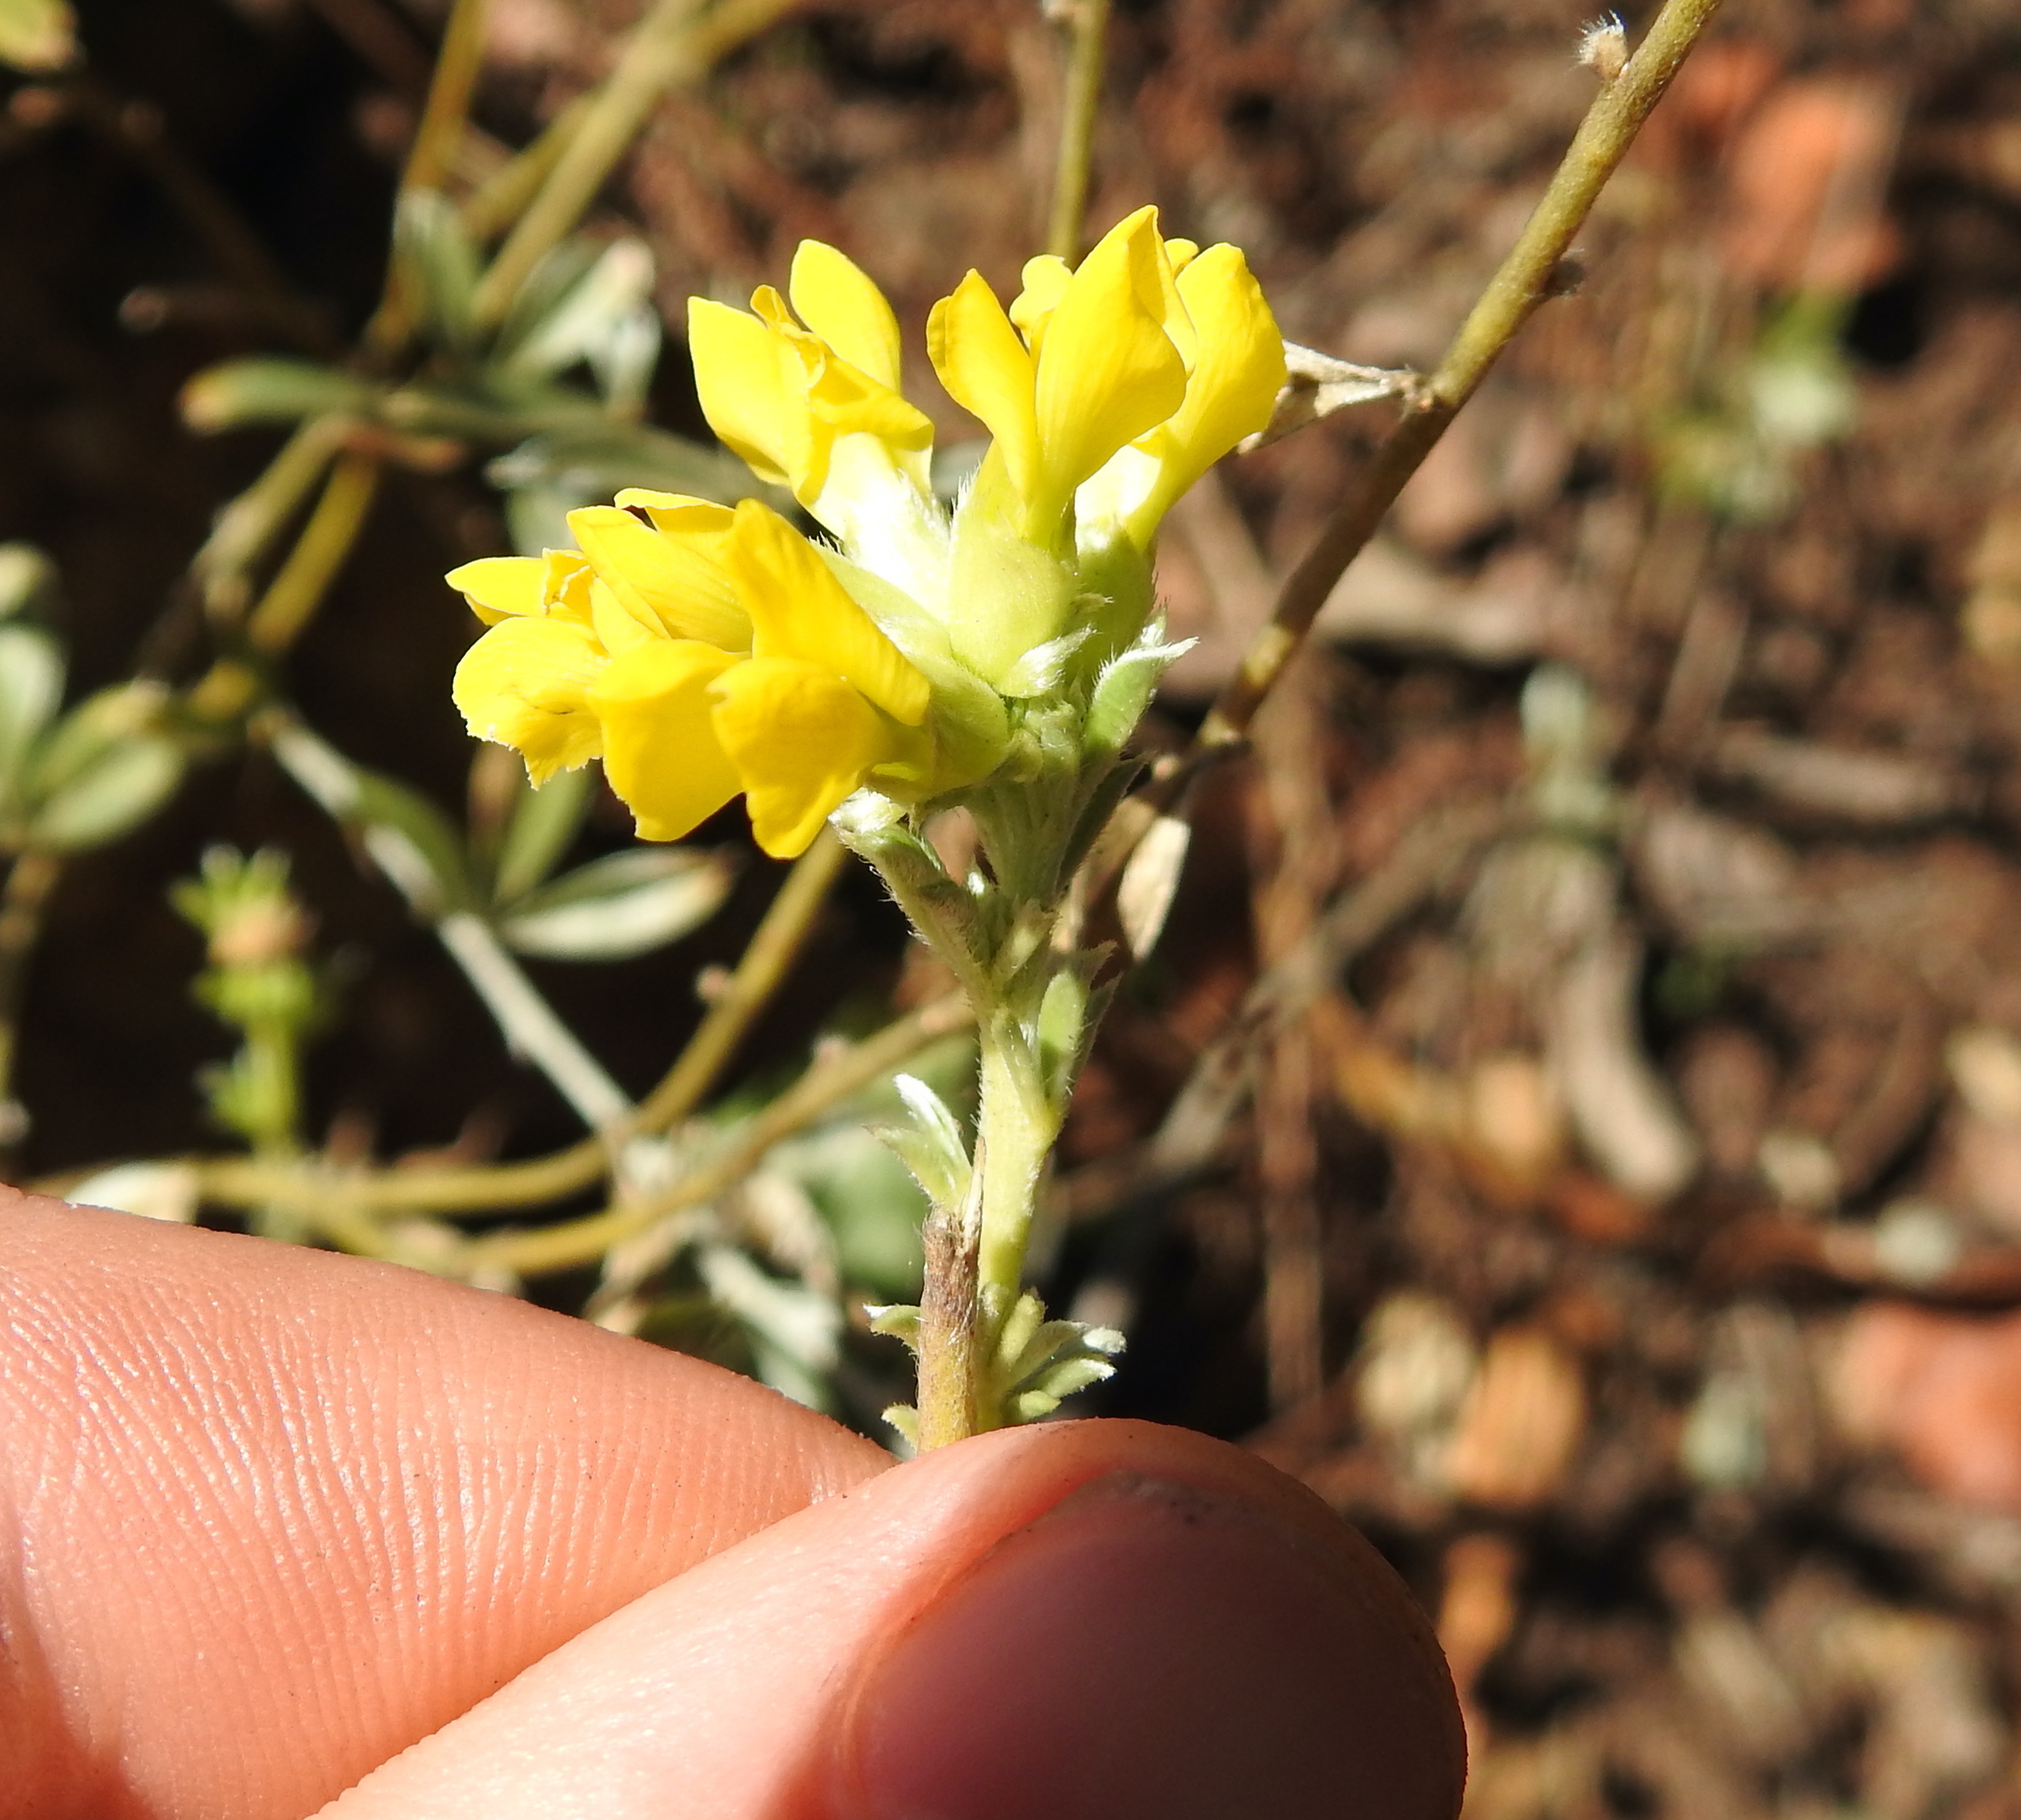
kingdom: Plantae
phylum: Tracheophyta
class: Magnoliopsida
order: Fabales
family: Fabaceae
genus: Pearsonia
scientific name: Pearsonia sessilifolia
